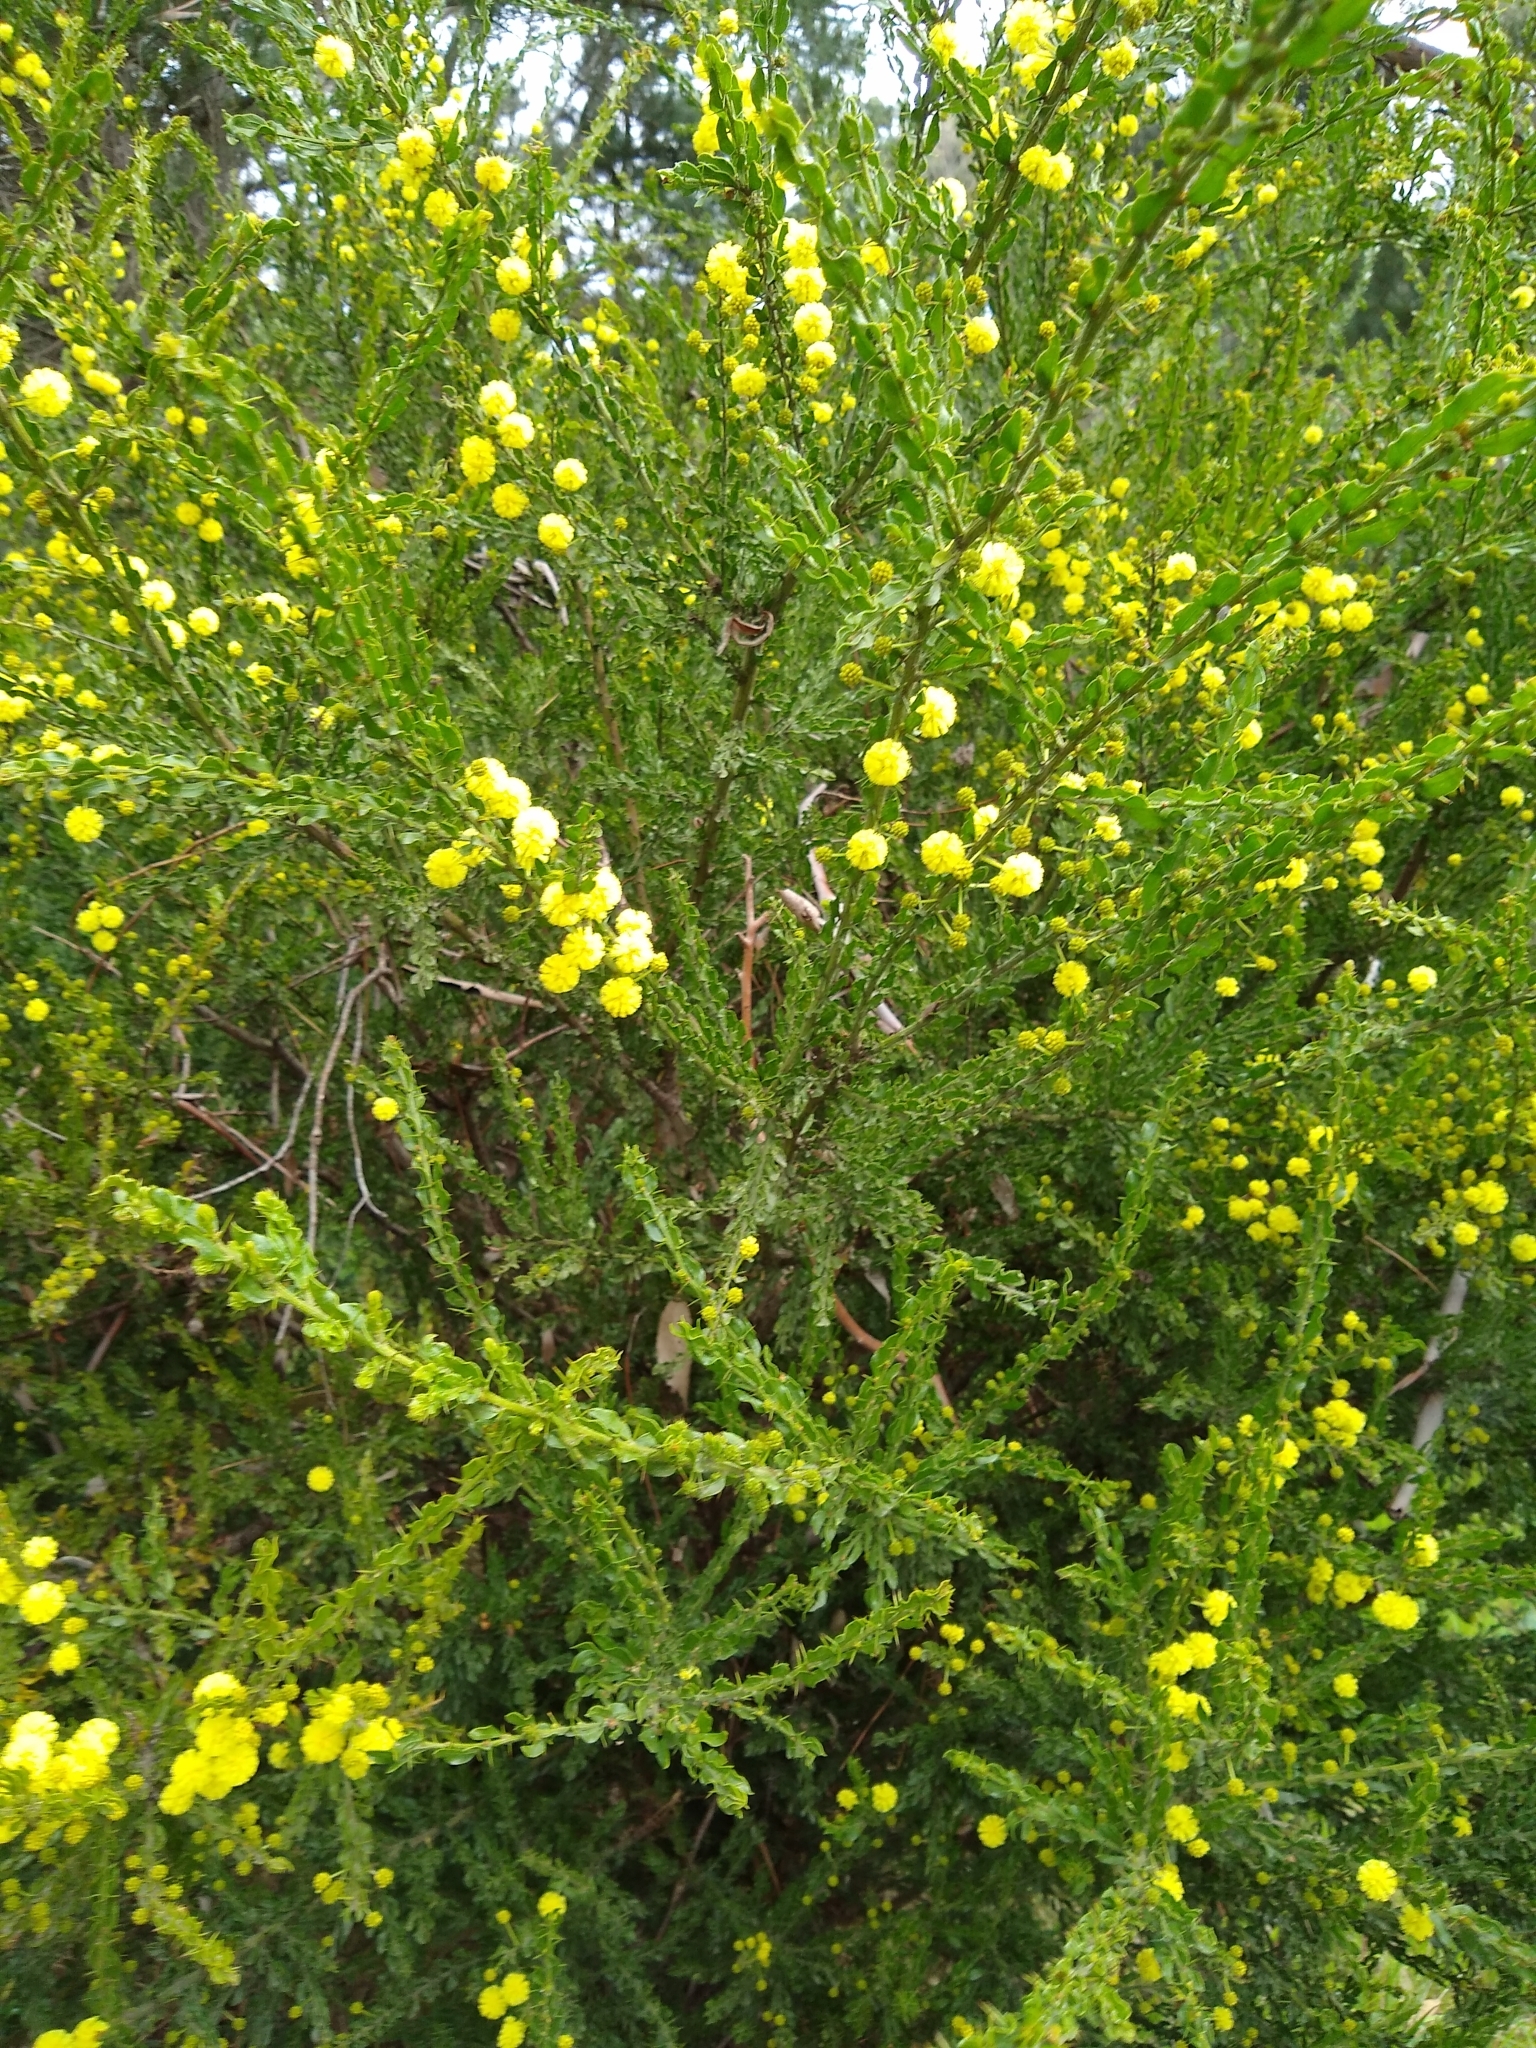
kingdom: Plantae
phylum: Tracheophyta
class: Magnoliopsida
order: Fabales
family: Fabaceae
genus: Acacia
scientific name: Acacia paradoxa
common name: Paradox acacia
